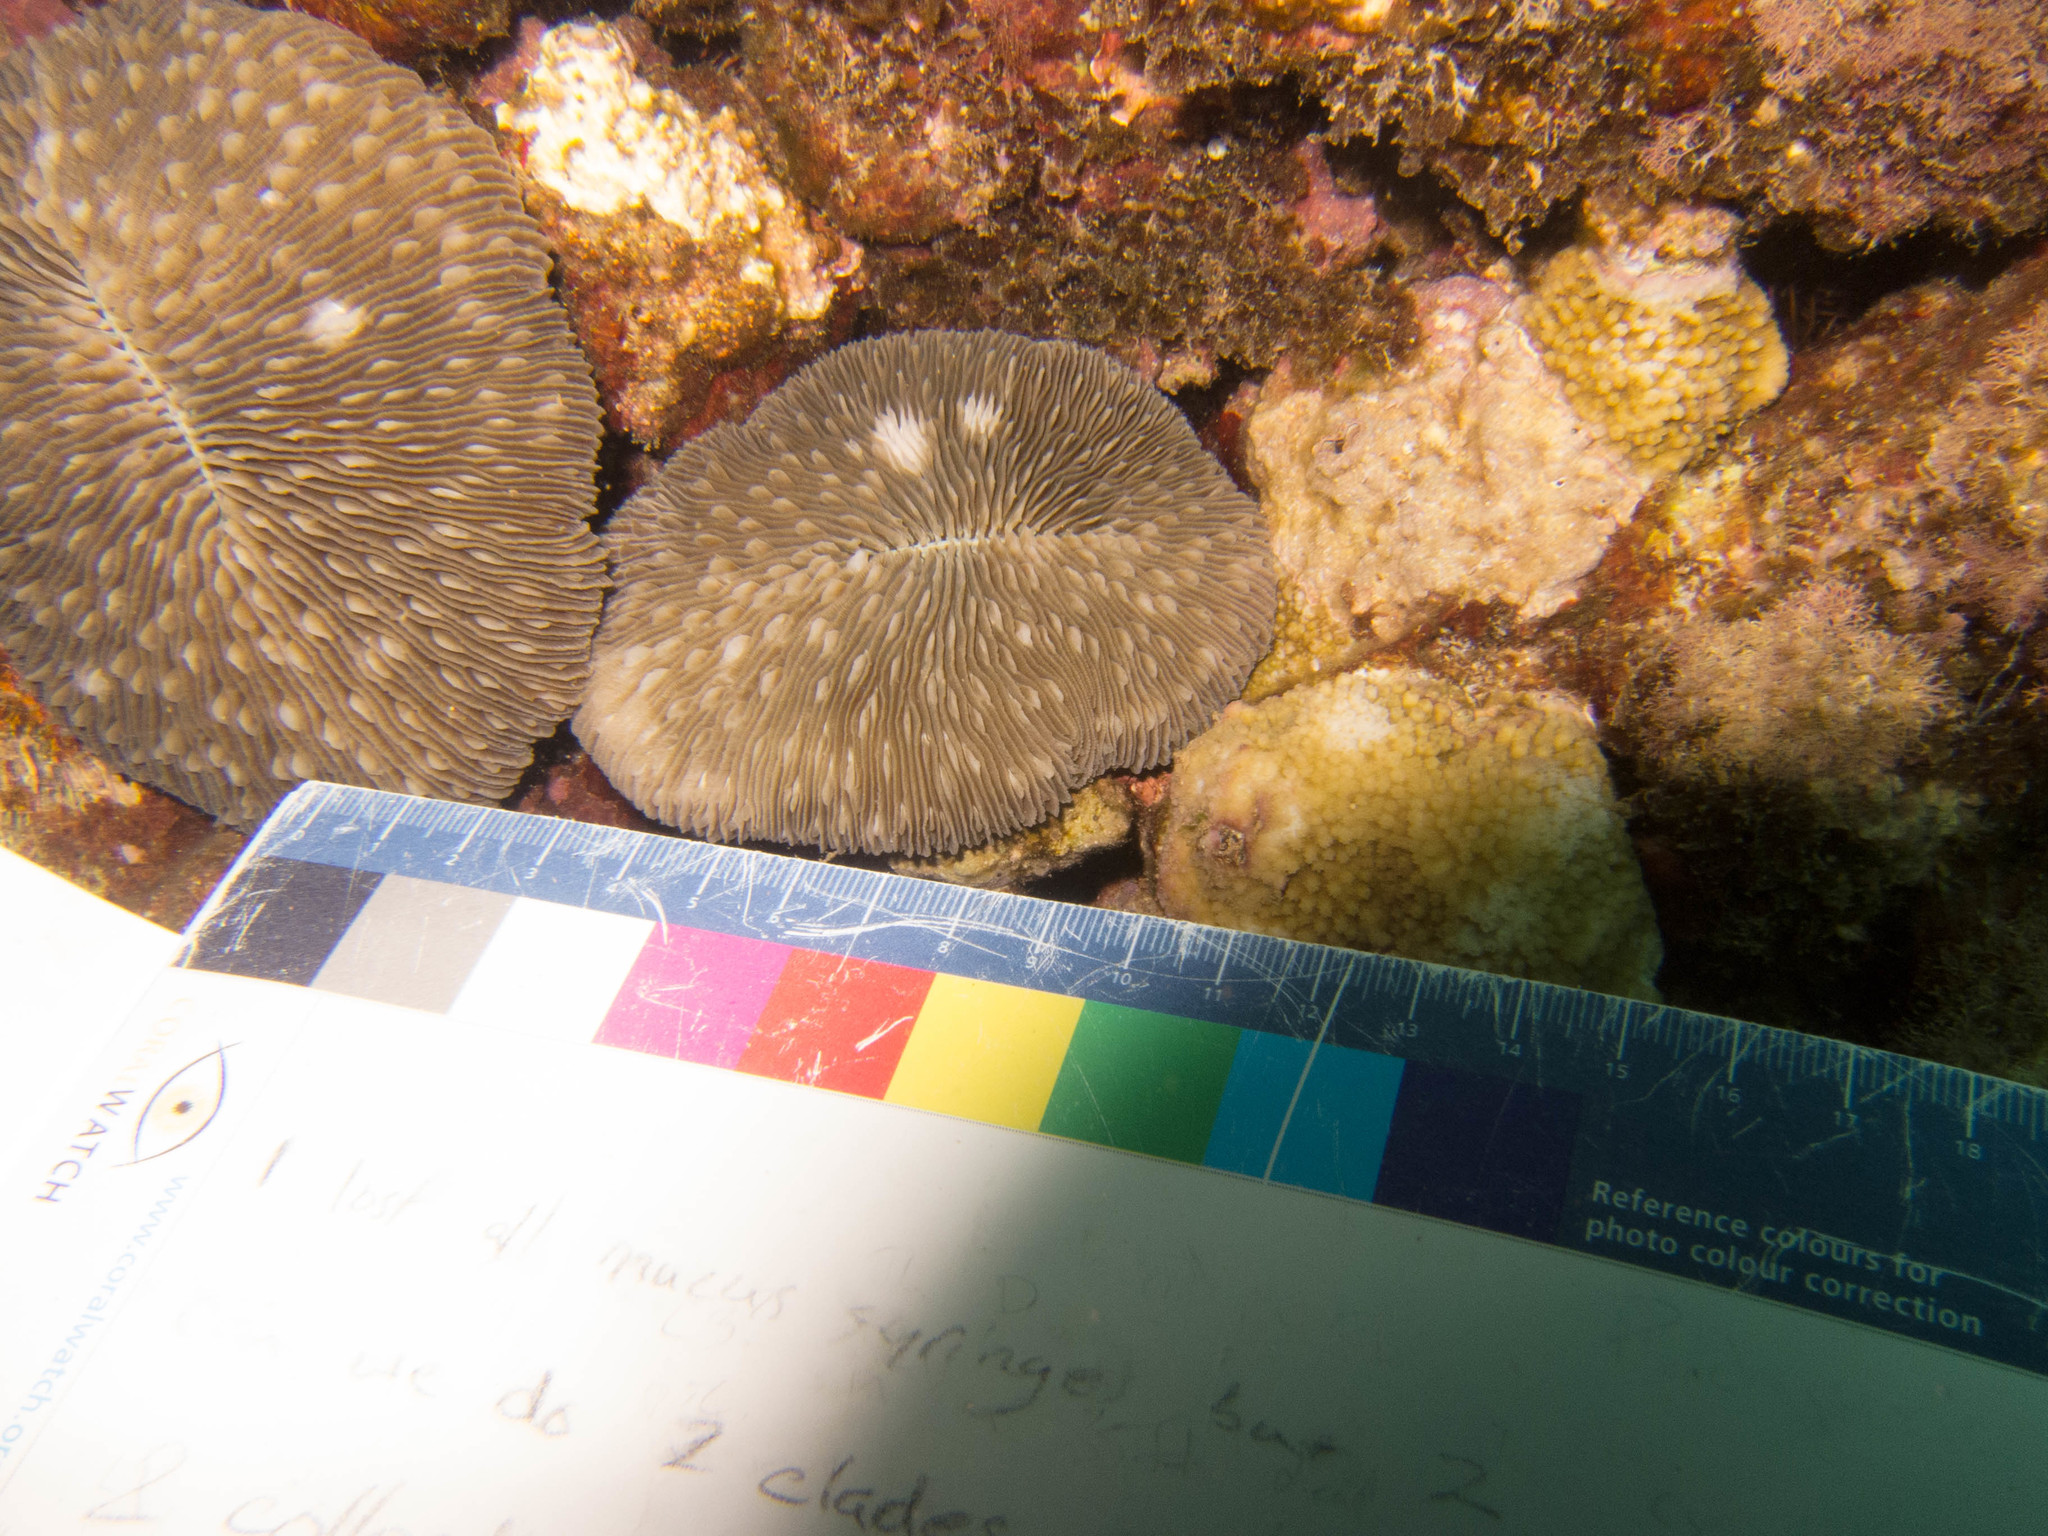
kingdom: Animalia
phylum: Cnidaria
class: Anthozoa
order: Scleractinia
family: Fungiidae
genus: Lobactis
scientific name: Lobactis scutaria
